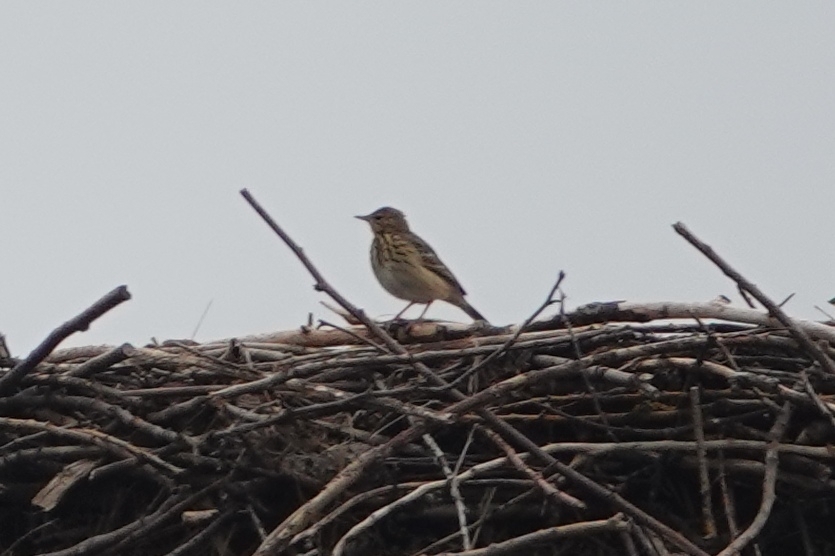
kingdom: Animalia
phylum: Chordata
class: Aves
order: Passeriformes
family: Motacillidae
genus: Anthus
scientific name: Anthus trivialis
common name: Tree pipit
